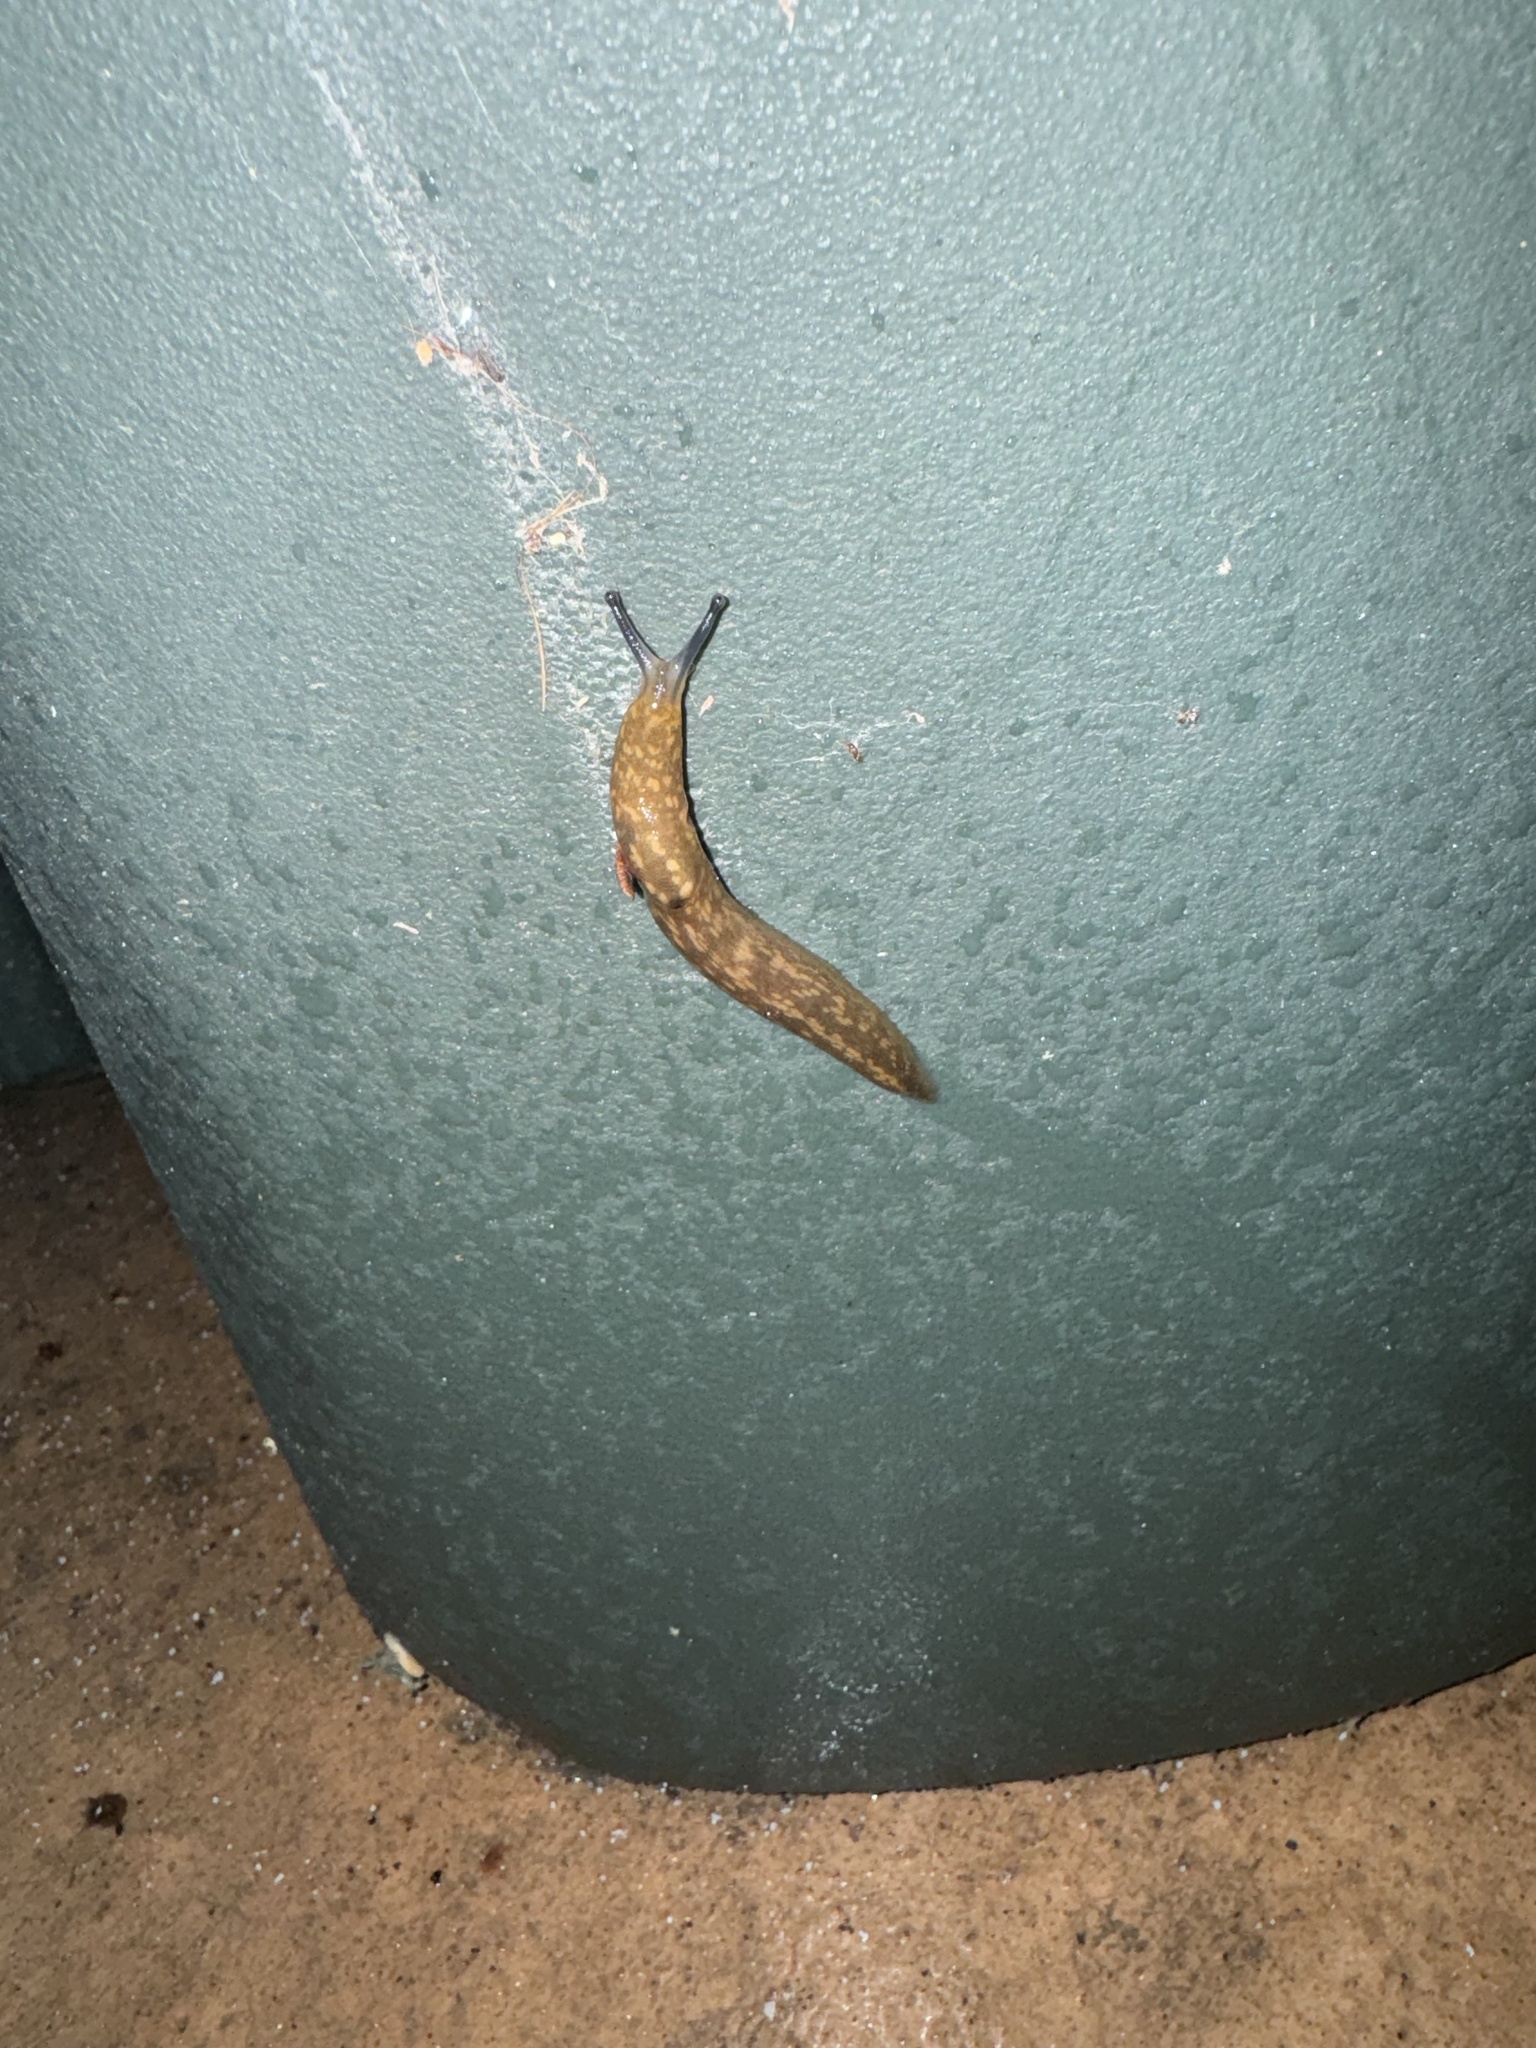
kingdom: Animalia
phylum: Mollusca
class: Gastropoda
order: Stylommatophora
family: Limacidae
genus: Limacus
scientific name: Limacus flavus
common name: Yellow gardenslug
